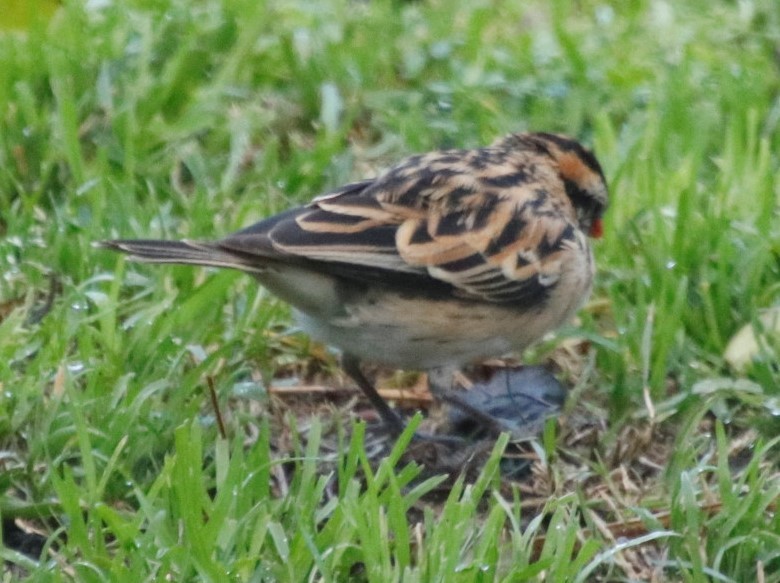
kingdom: Animalia
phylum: Chordata
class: Aves
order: Passeriformes
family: Viduidae
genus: Vidua
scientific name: Vidua macroura
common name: Pin-tailed whydah
